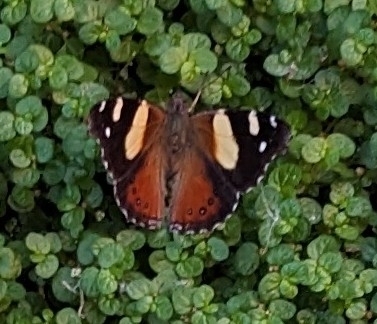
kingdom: Animalia
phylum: Arthropoda
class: Insecta
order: Lepidoptera
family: Nymphalidae
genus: Vanessa
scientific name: Vanessa itea
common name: Yellow admiral
